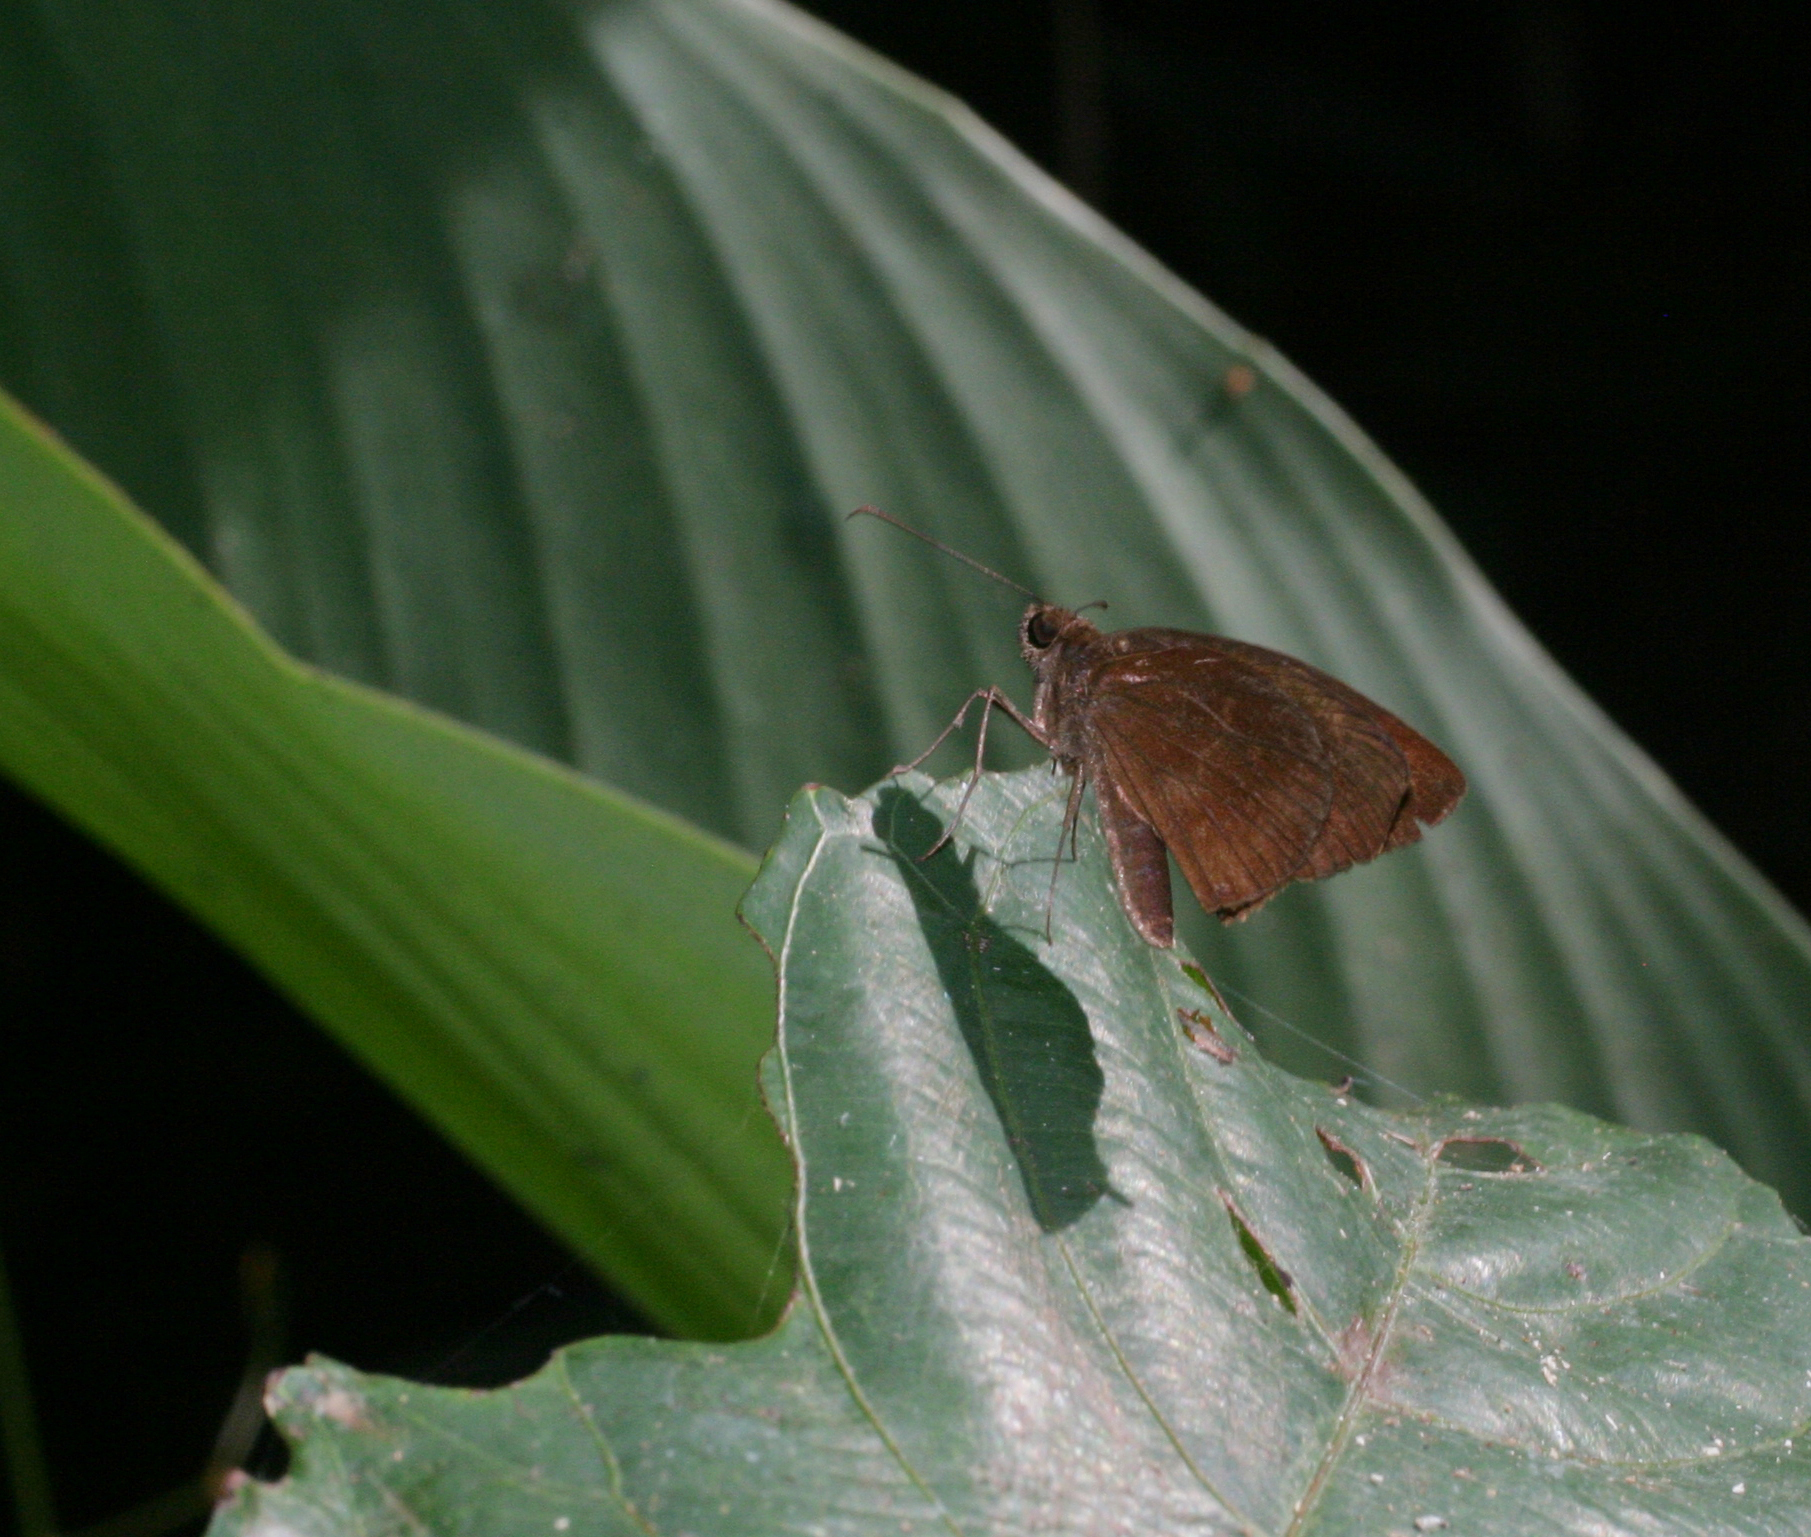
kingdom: Animalia
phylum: Arthropoda
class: Insecta
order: Lepidoptera
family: Hesperiidae
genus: Psolos
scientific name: Psolos fuligo
